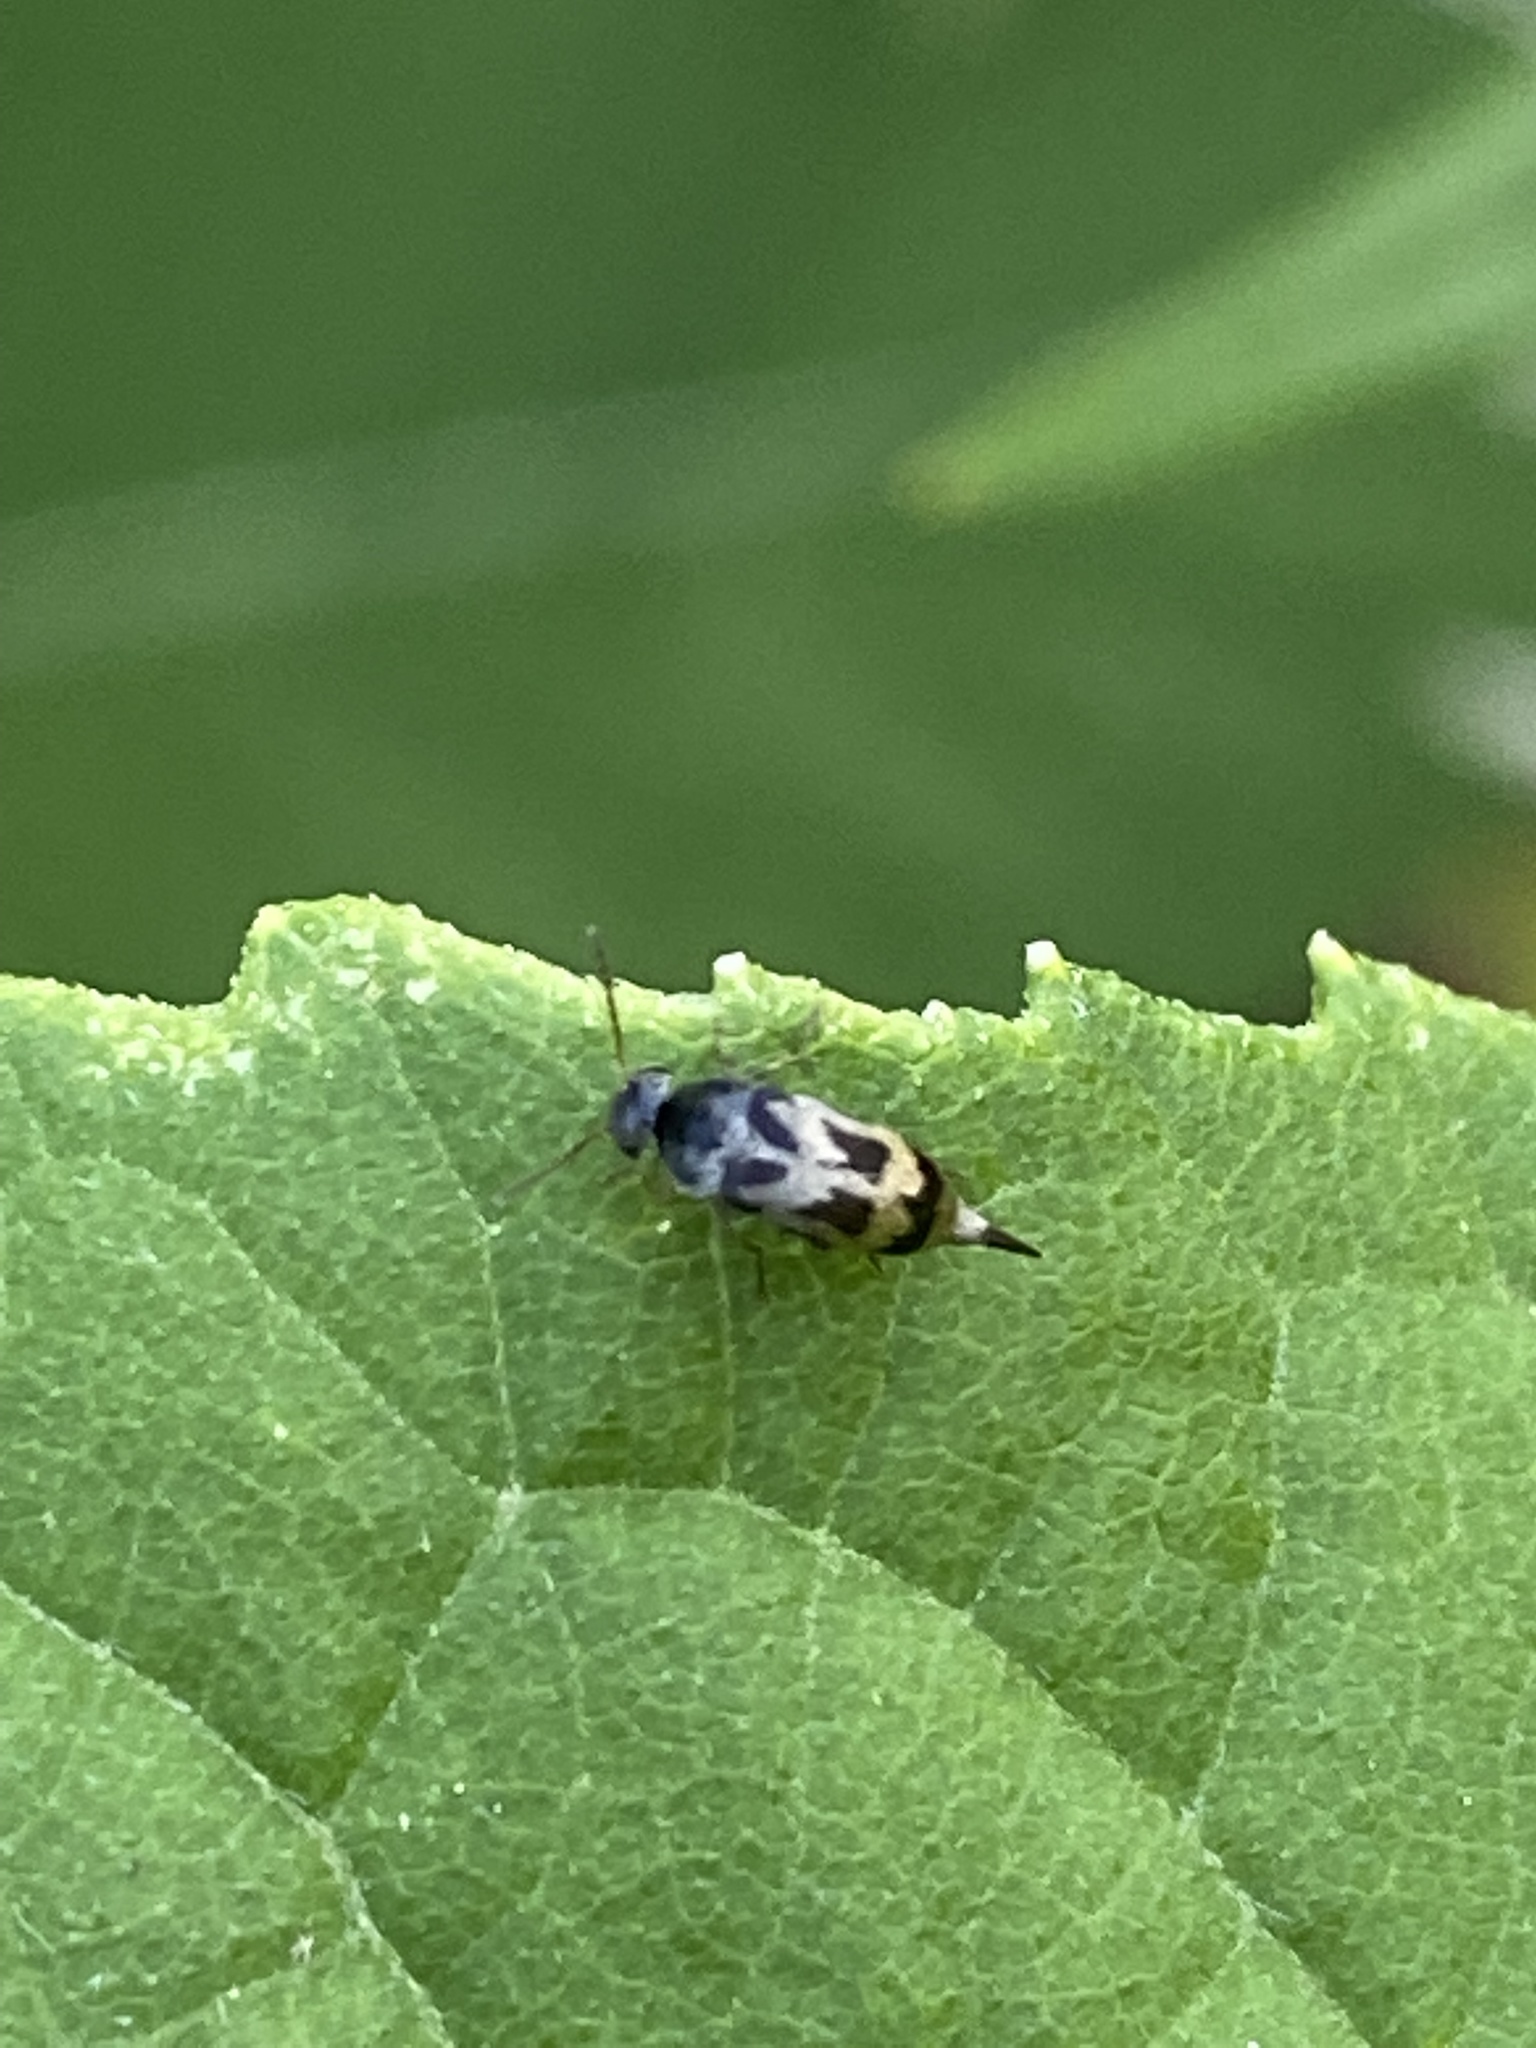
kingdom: Animalia
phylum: Arthropoda
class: Insecta
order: Coleoptera
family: Mordellidae
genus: Falsomordellistena
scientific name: Falsomordellistena hebraica
